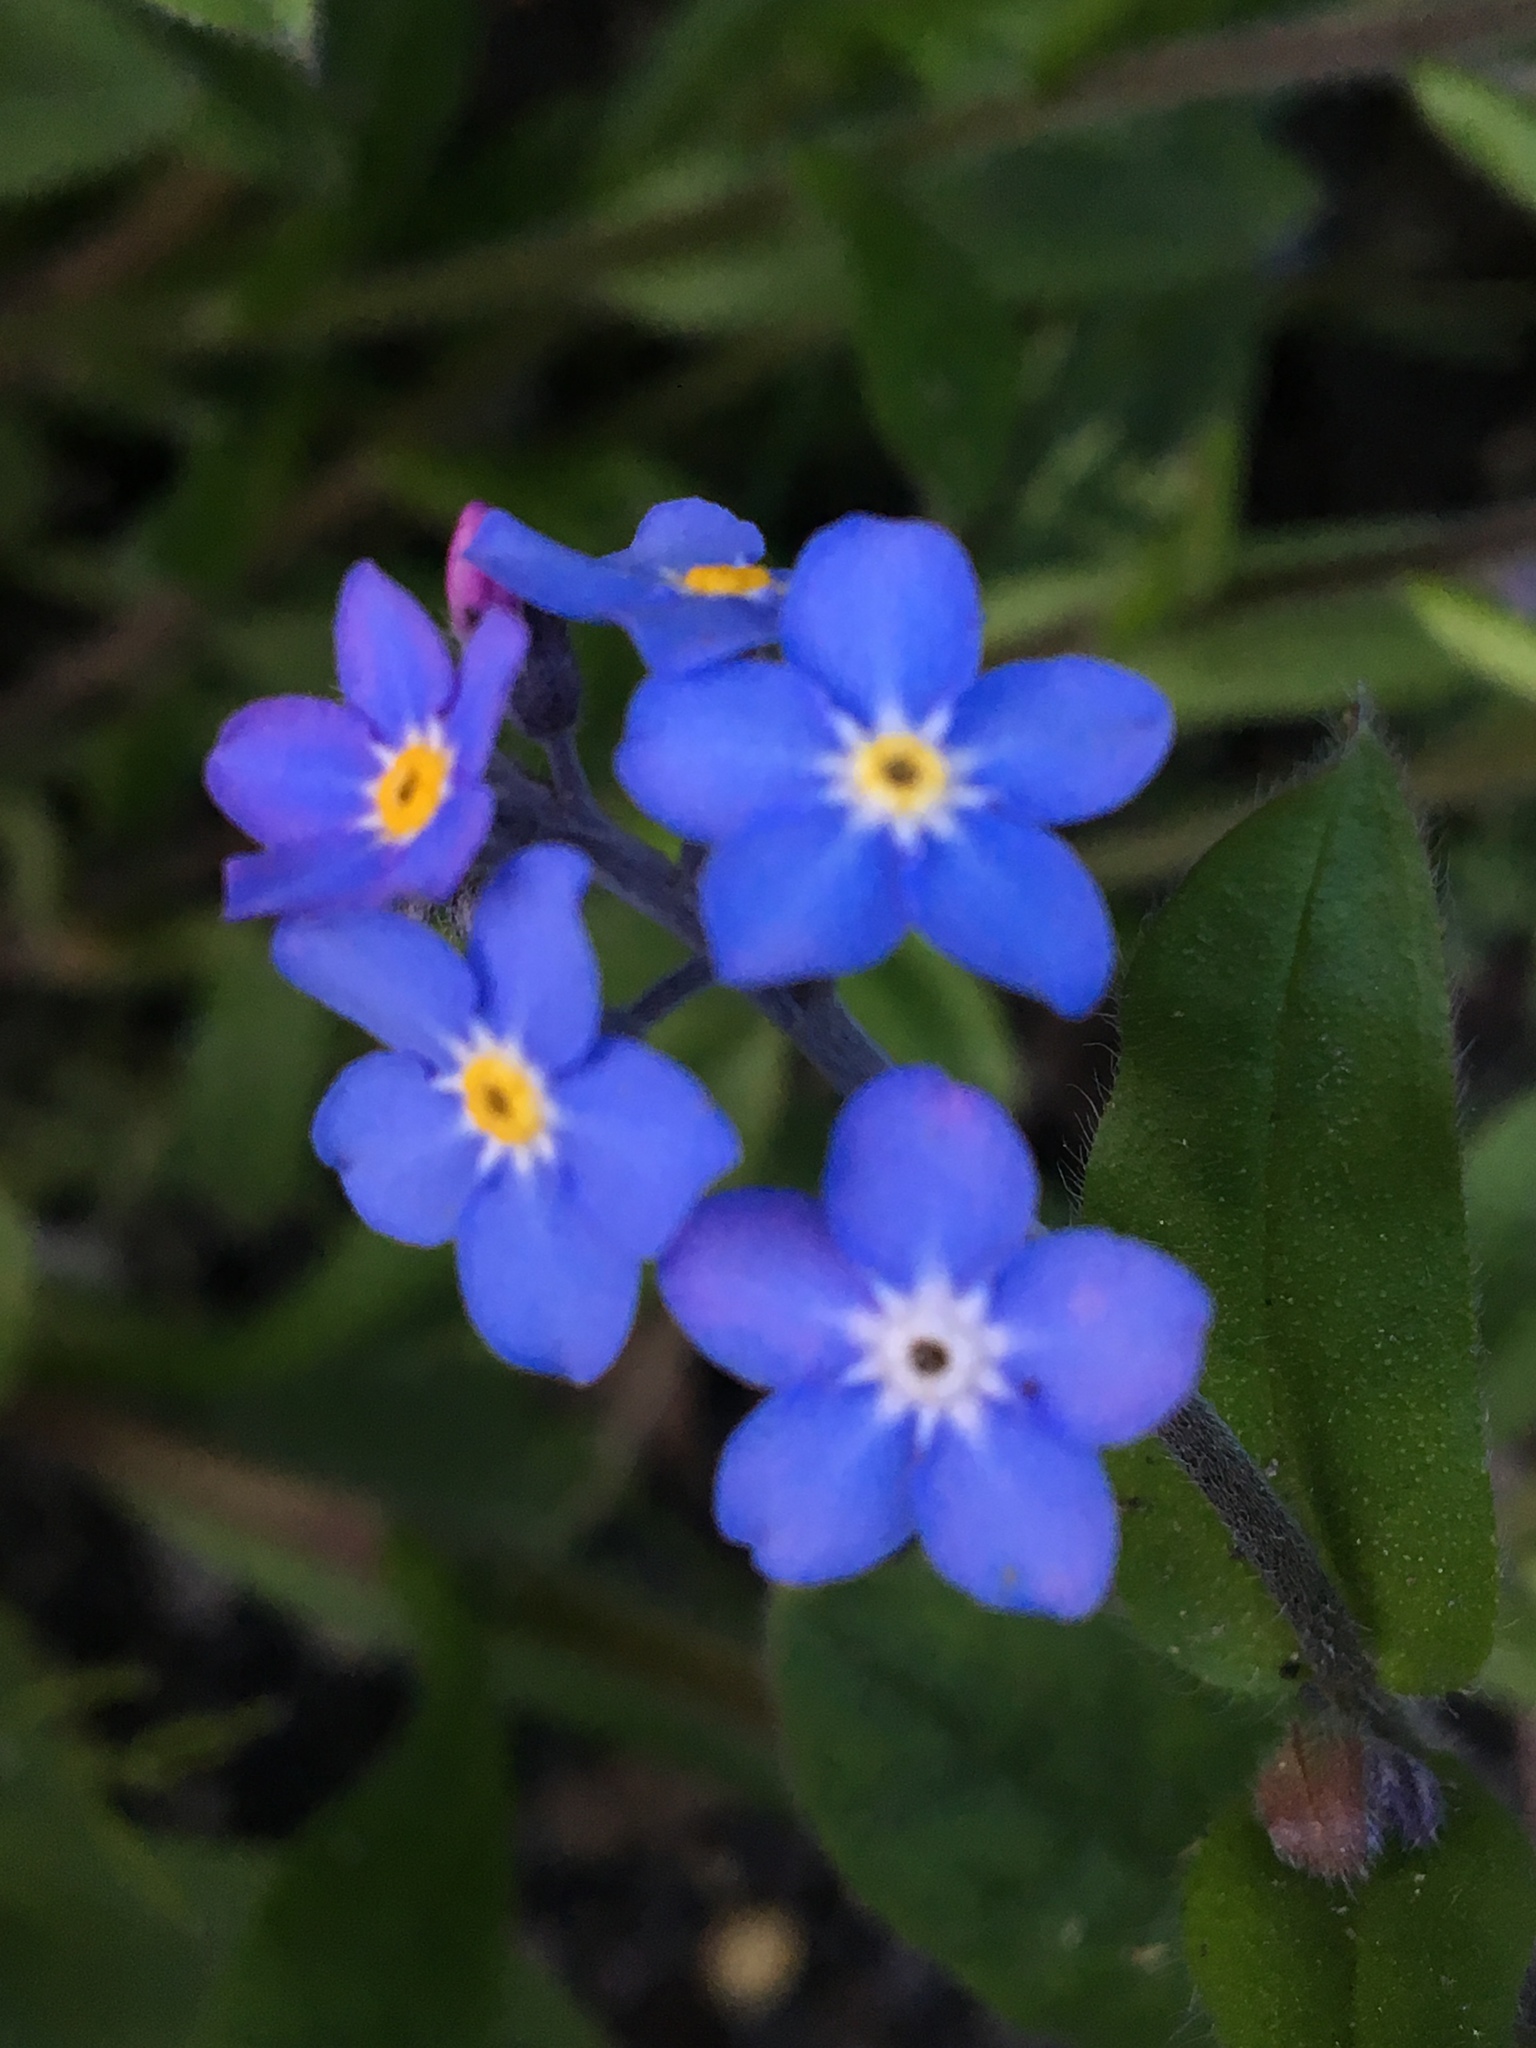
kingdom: Plantae
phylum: Tracheophyta
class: Magnoliopsida
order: Boraginales
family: Boraginaceae
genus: Myosotis
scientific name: Myosotis sylvatica
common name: Wood forget-me-not
